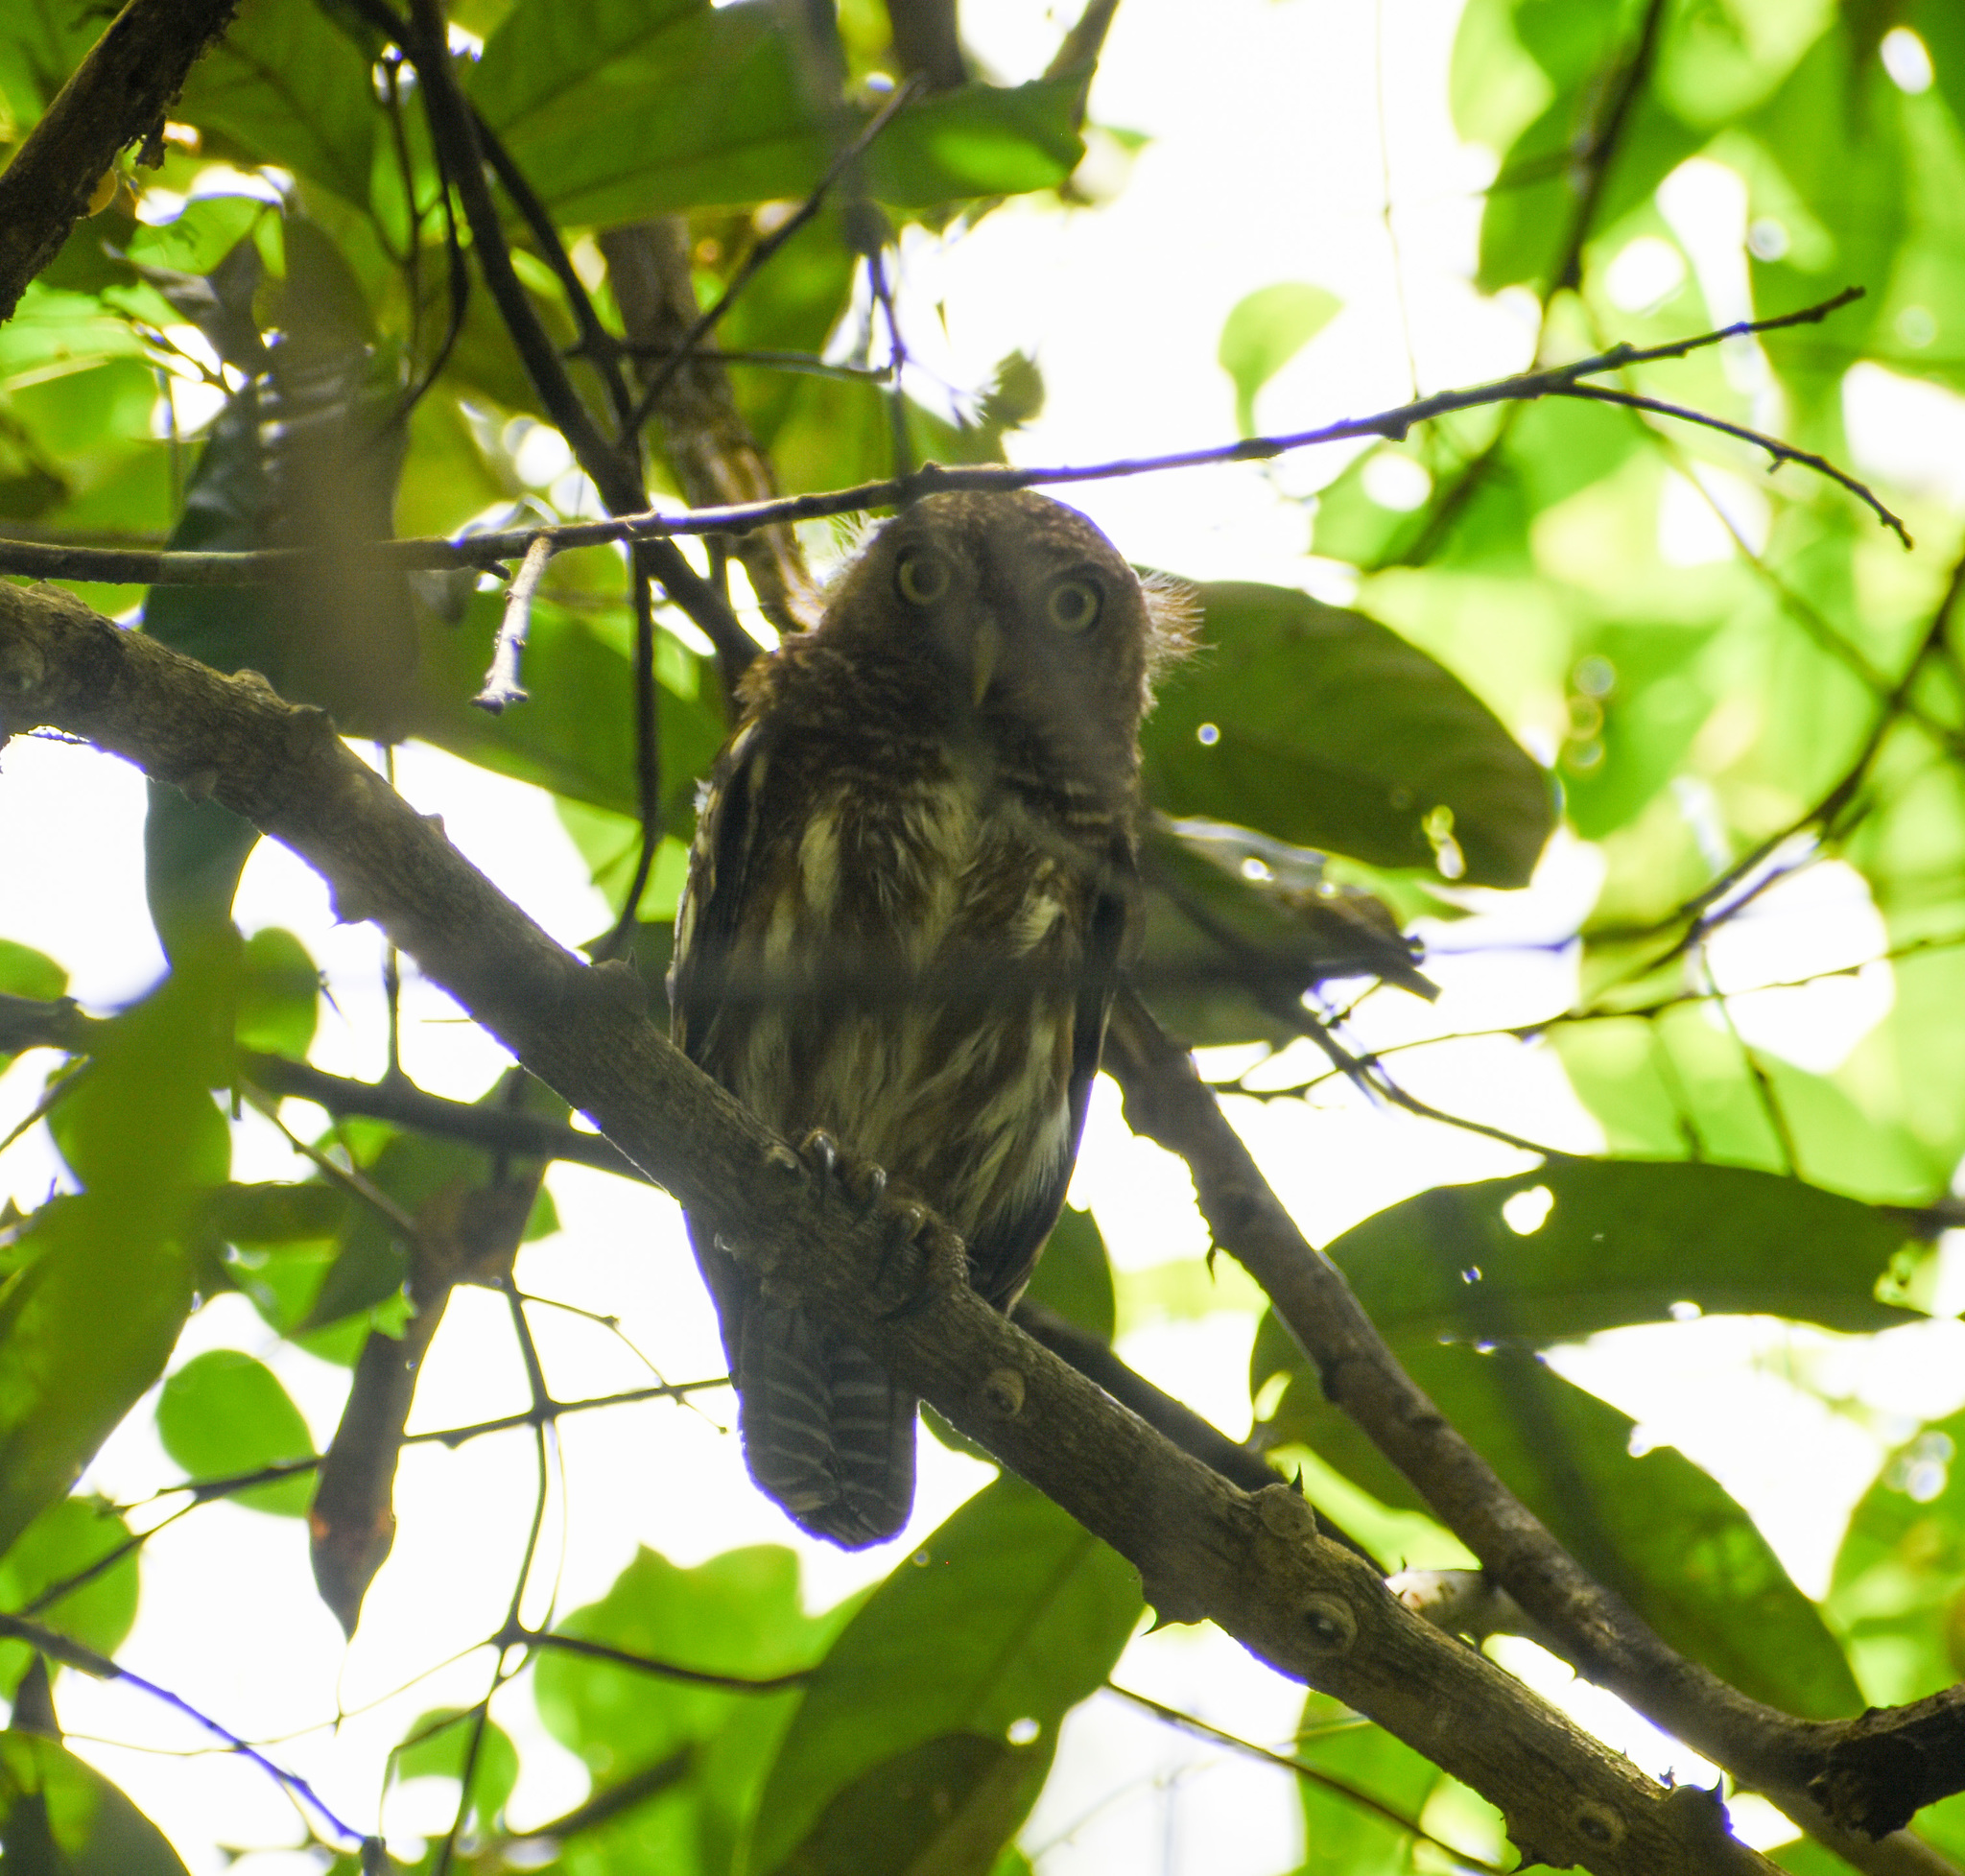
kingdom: Animalia
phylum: Chordata
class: Aves
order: Strigiformes
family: Strigidae
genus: Glaucidium
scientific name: Glaucidium cuculoides
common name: Asian barred owlet
